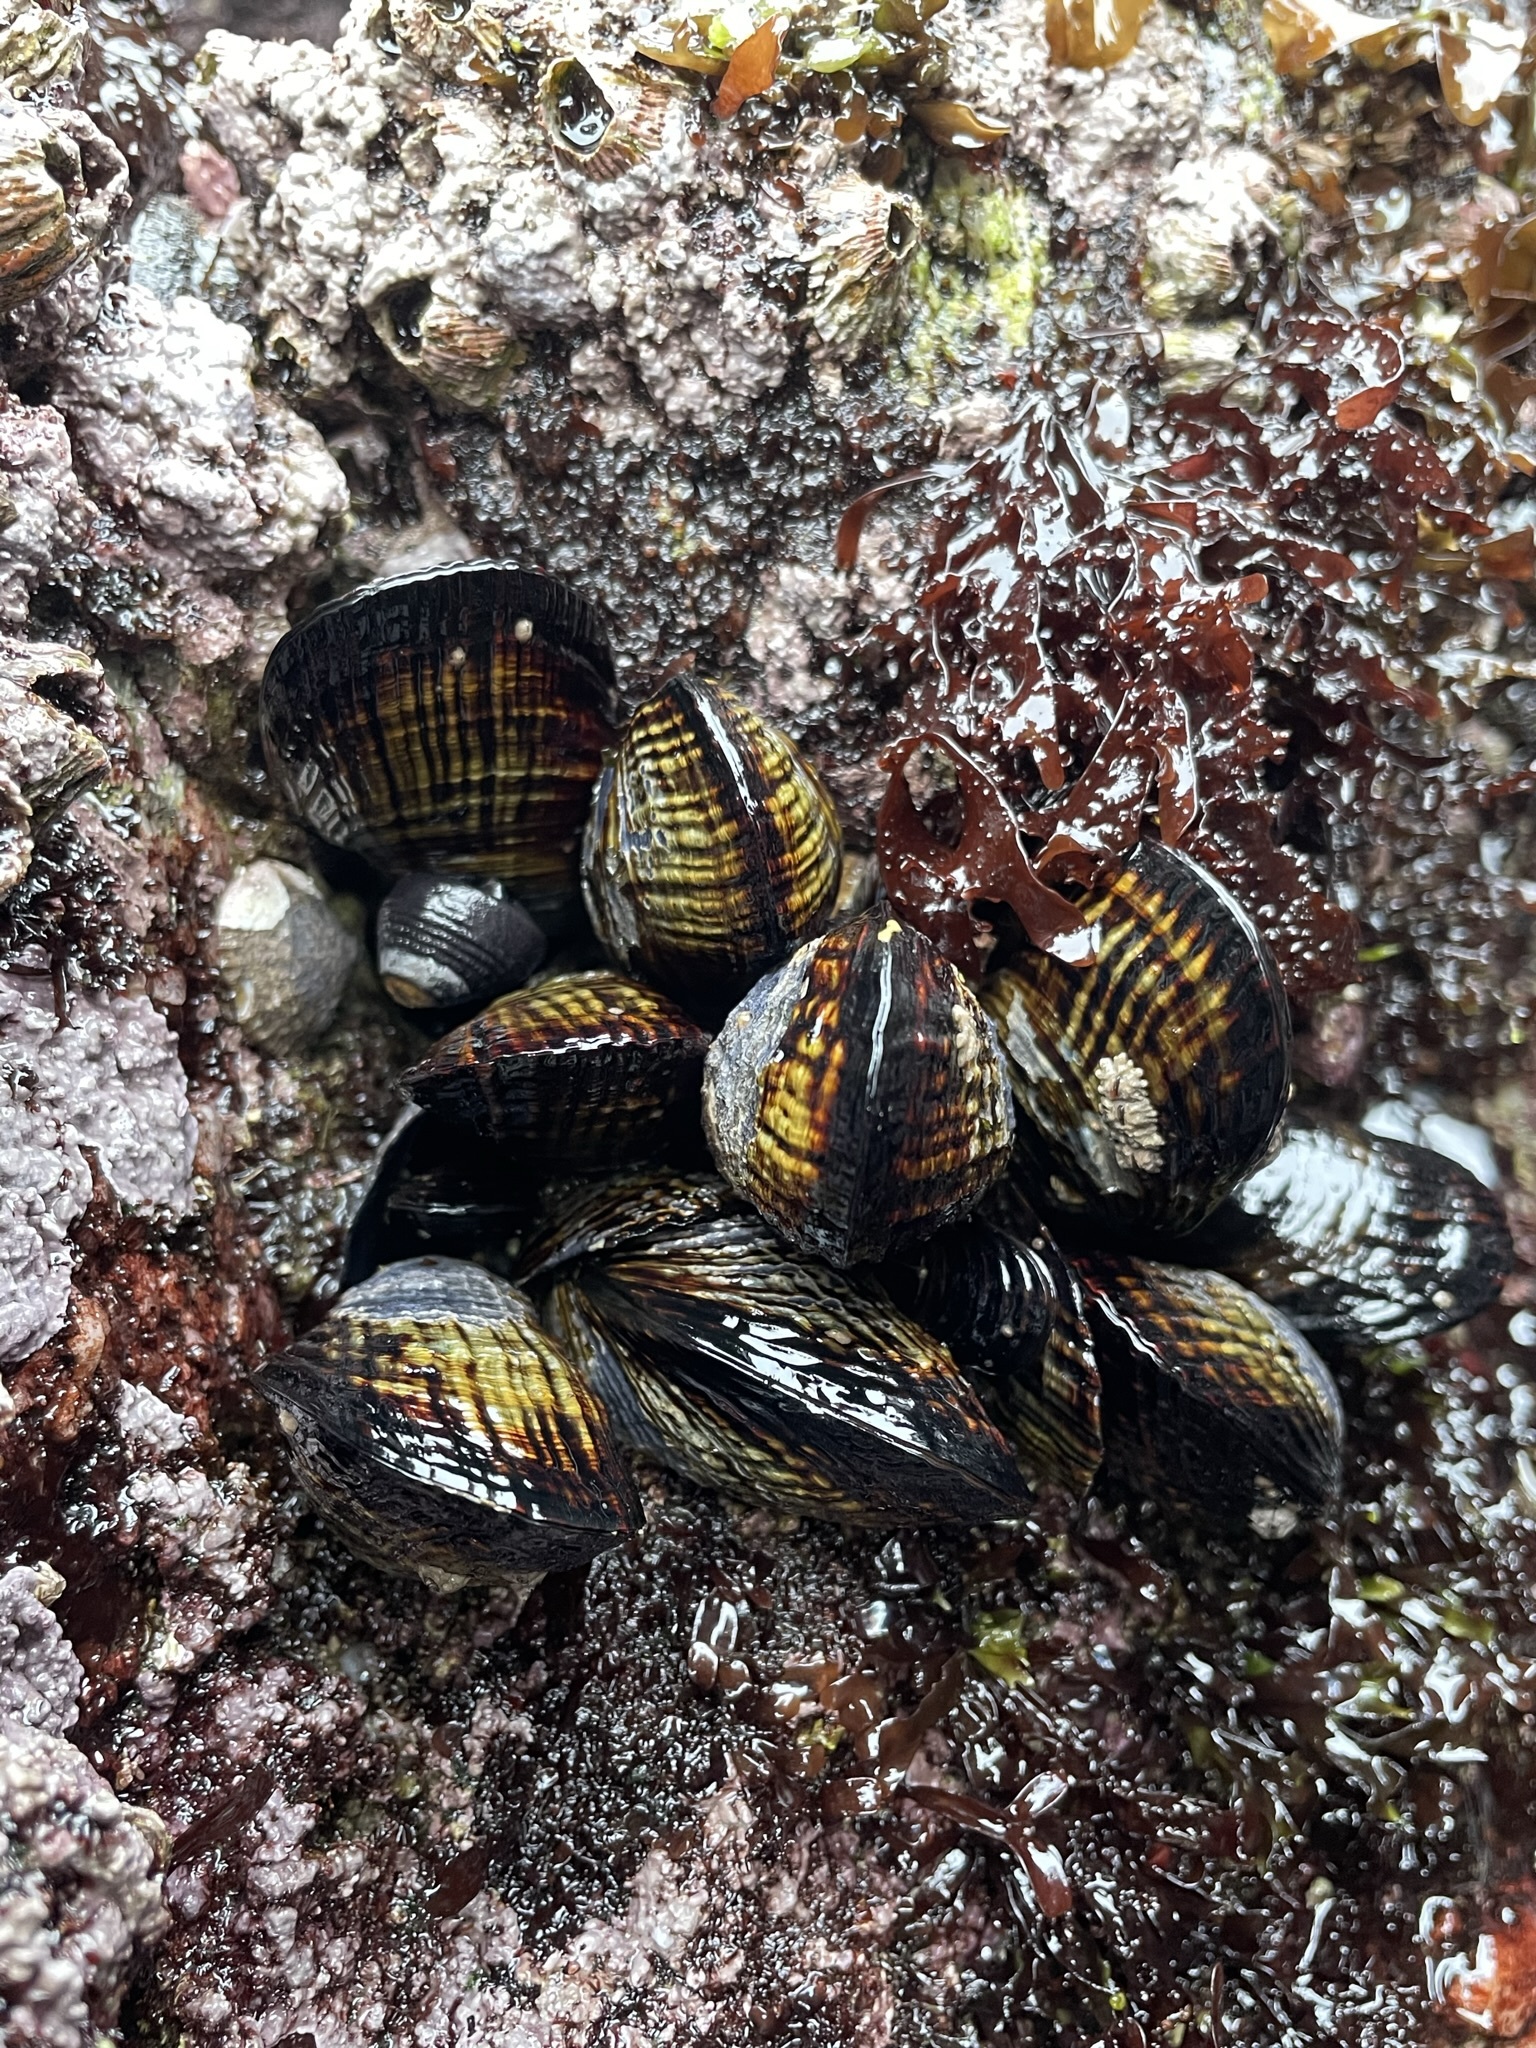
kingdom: Animalia
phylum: Mollusca
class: Bivalvia
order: Mytilida
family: Mytilidae
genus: Mytilus
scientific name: Mytilus californianus
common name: California mussel
